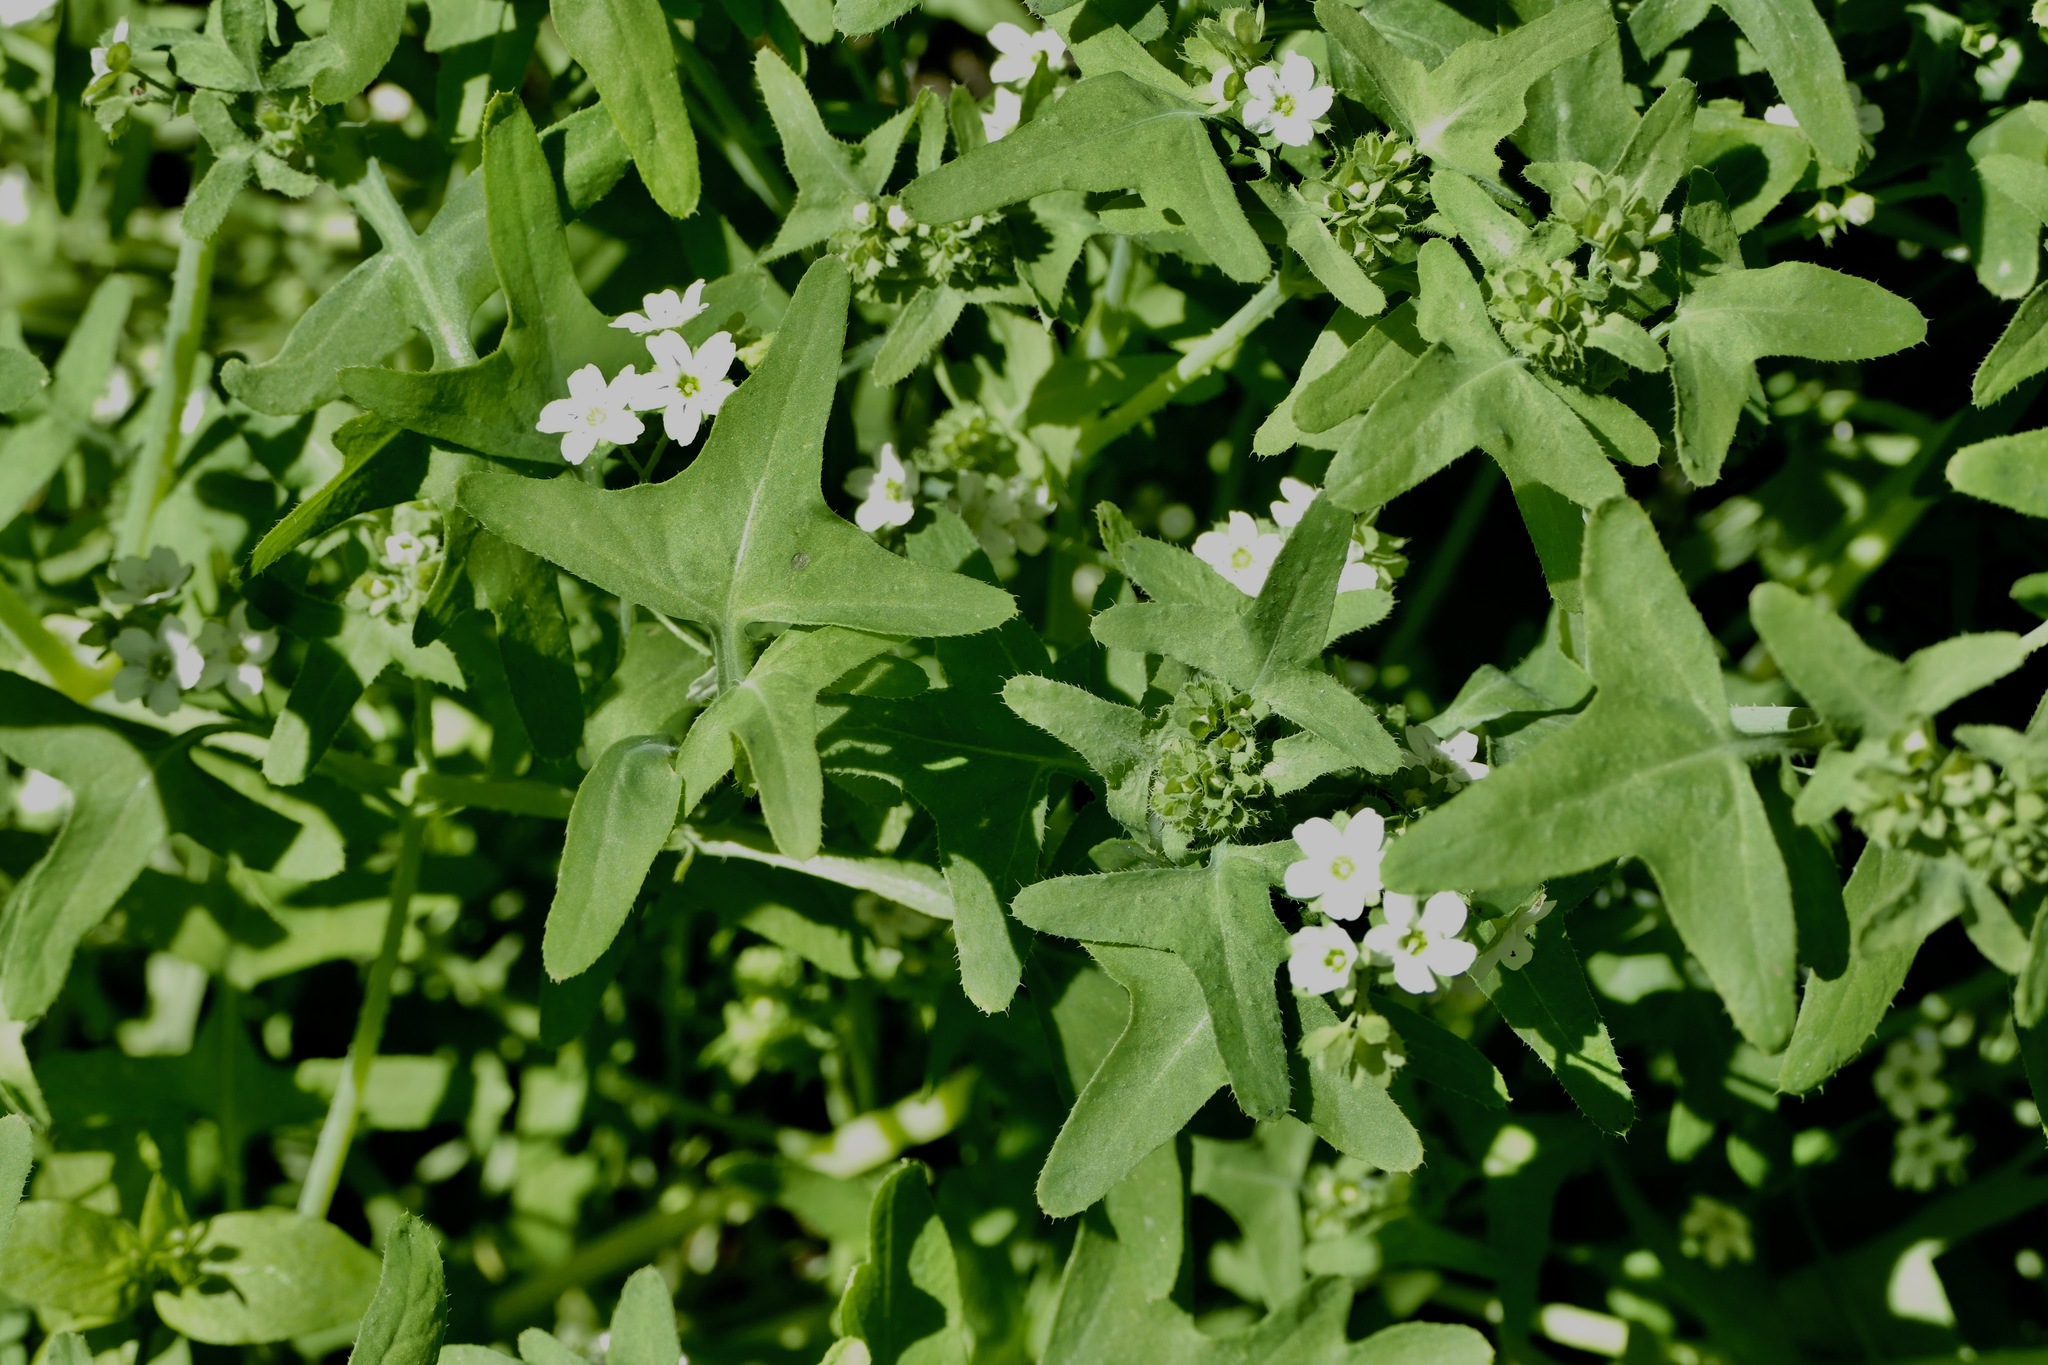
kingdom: Plantae
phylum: Tracheophyta
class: Magnoliopsida
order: Boraginales
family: Hydrophyllaceae
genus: Pholistoma
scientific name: Pholistoma membranaceum
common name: White fiesta-flower
